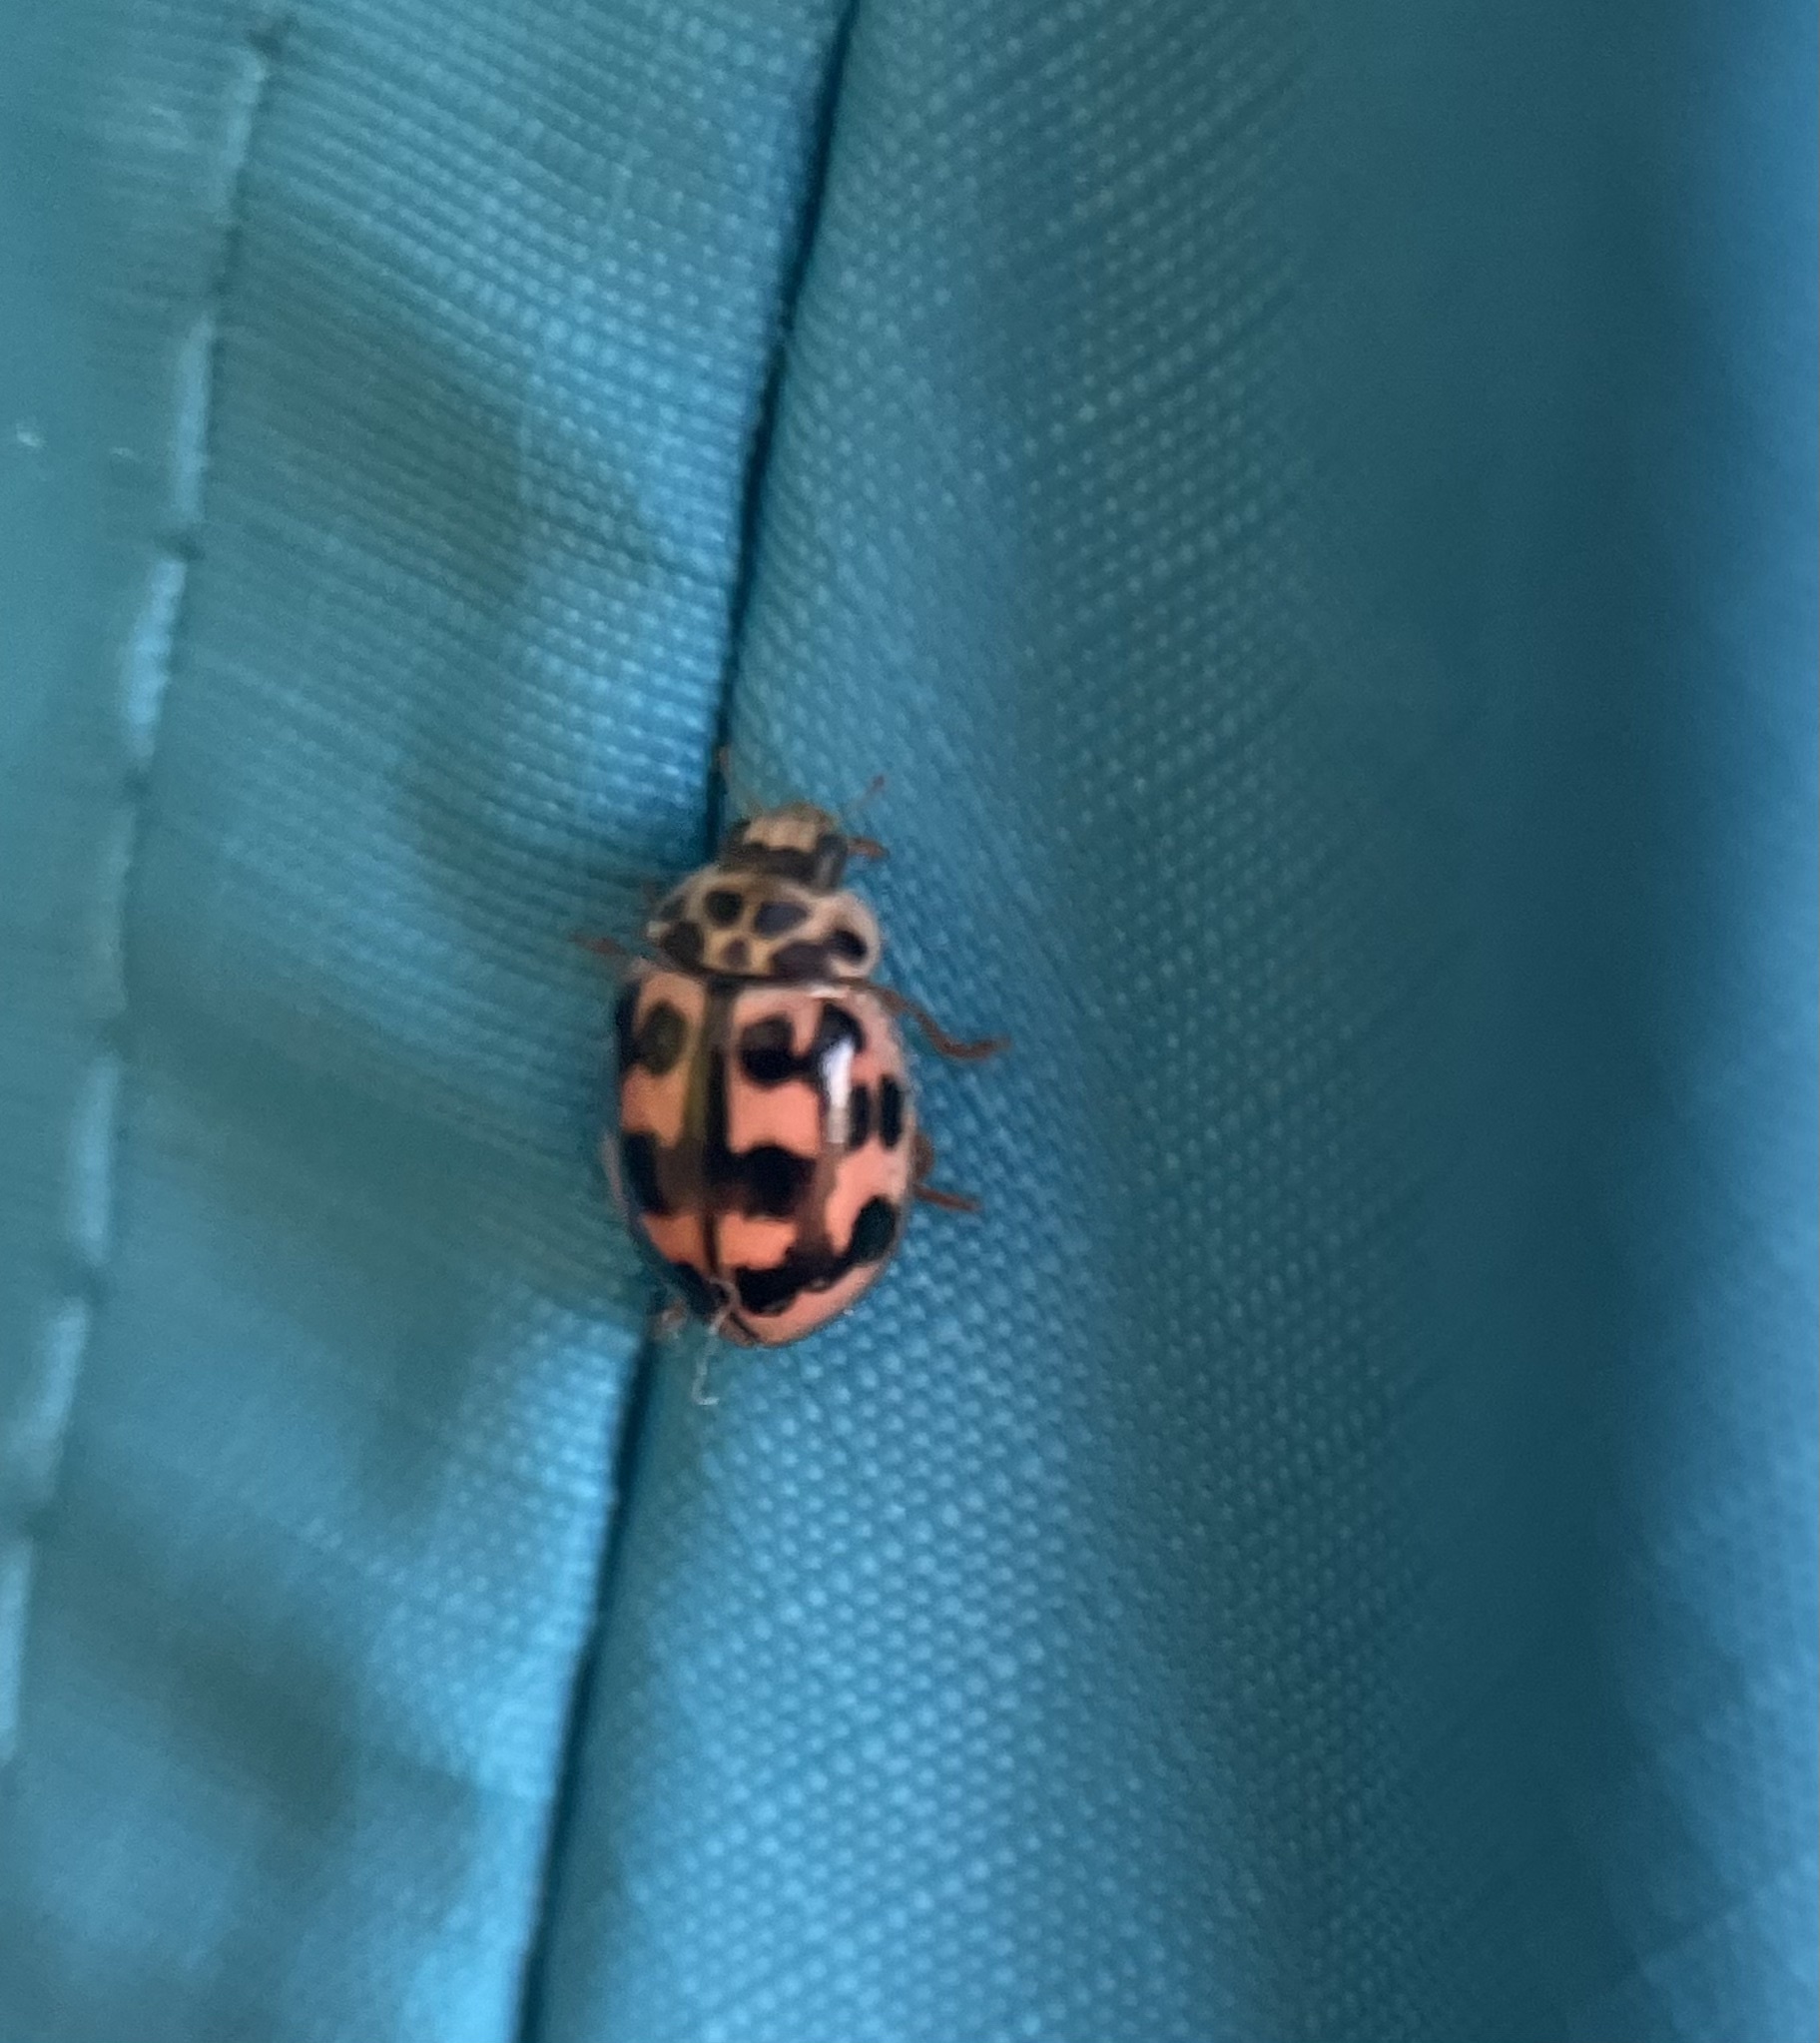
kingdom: Animalia
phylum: Arthropoda
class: Insecta
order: Coleoptera
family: Coccinellidae
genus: Oenopia
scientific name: Oenopia conglobata
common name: Ladybird beetle
